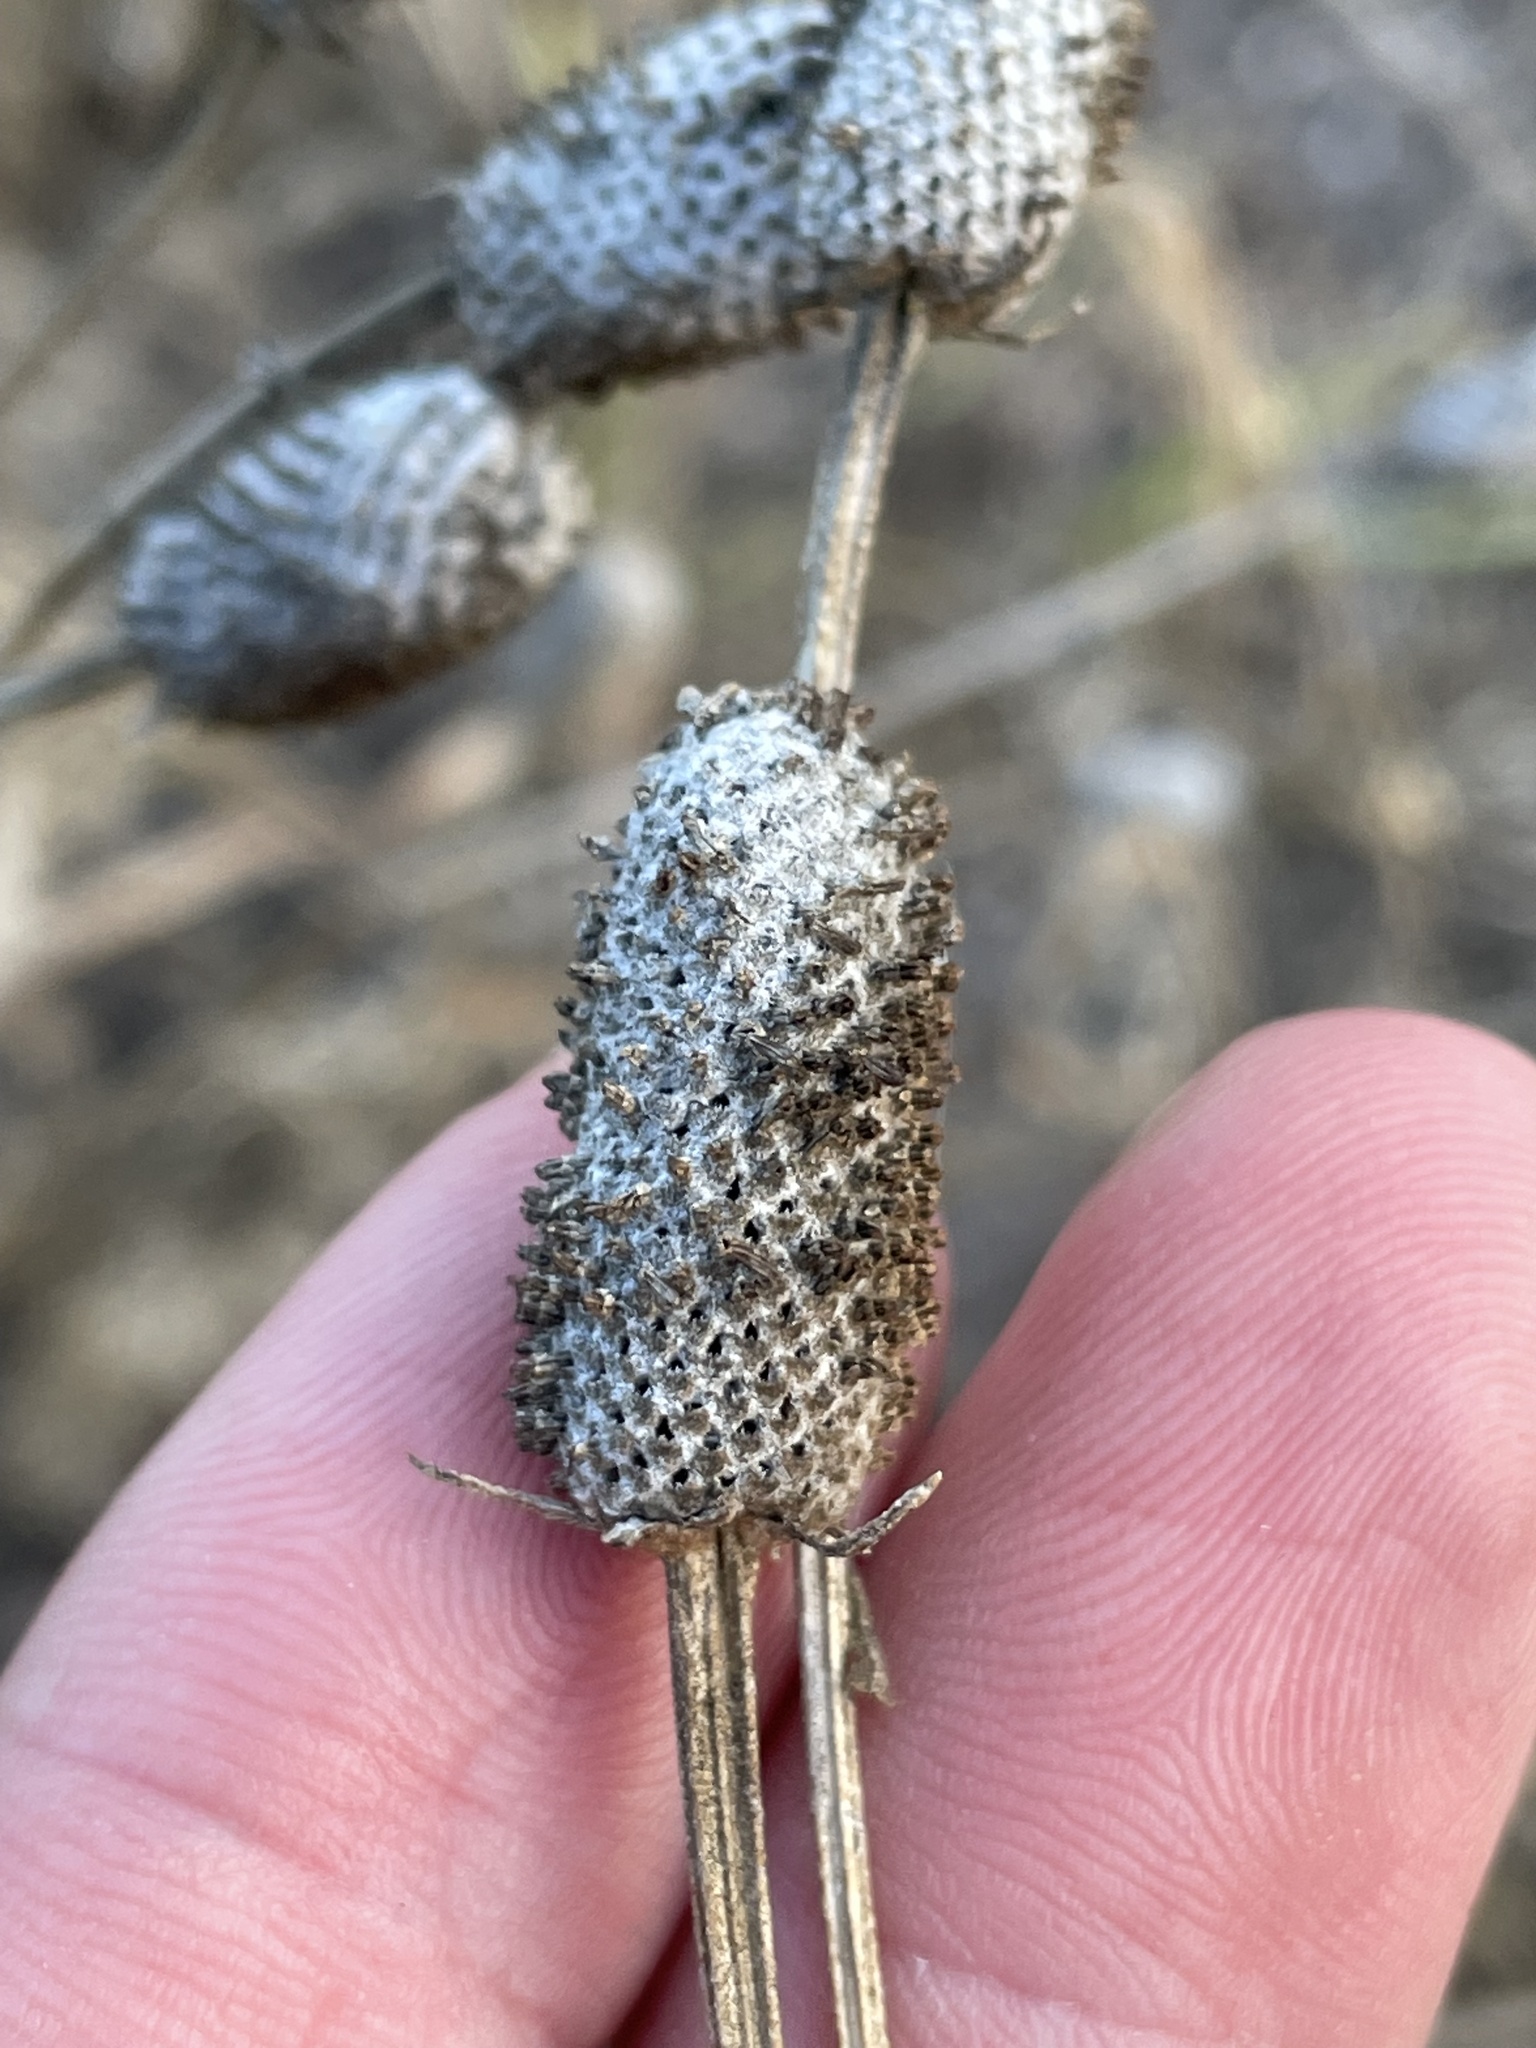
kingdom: Plantae
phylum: Tracheophyta
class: Magnoliopsida
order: Asterales
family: Asteraceae
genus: Ratibida
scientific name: Ratibida columnifera
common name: Prairie coneflower
